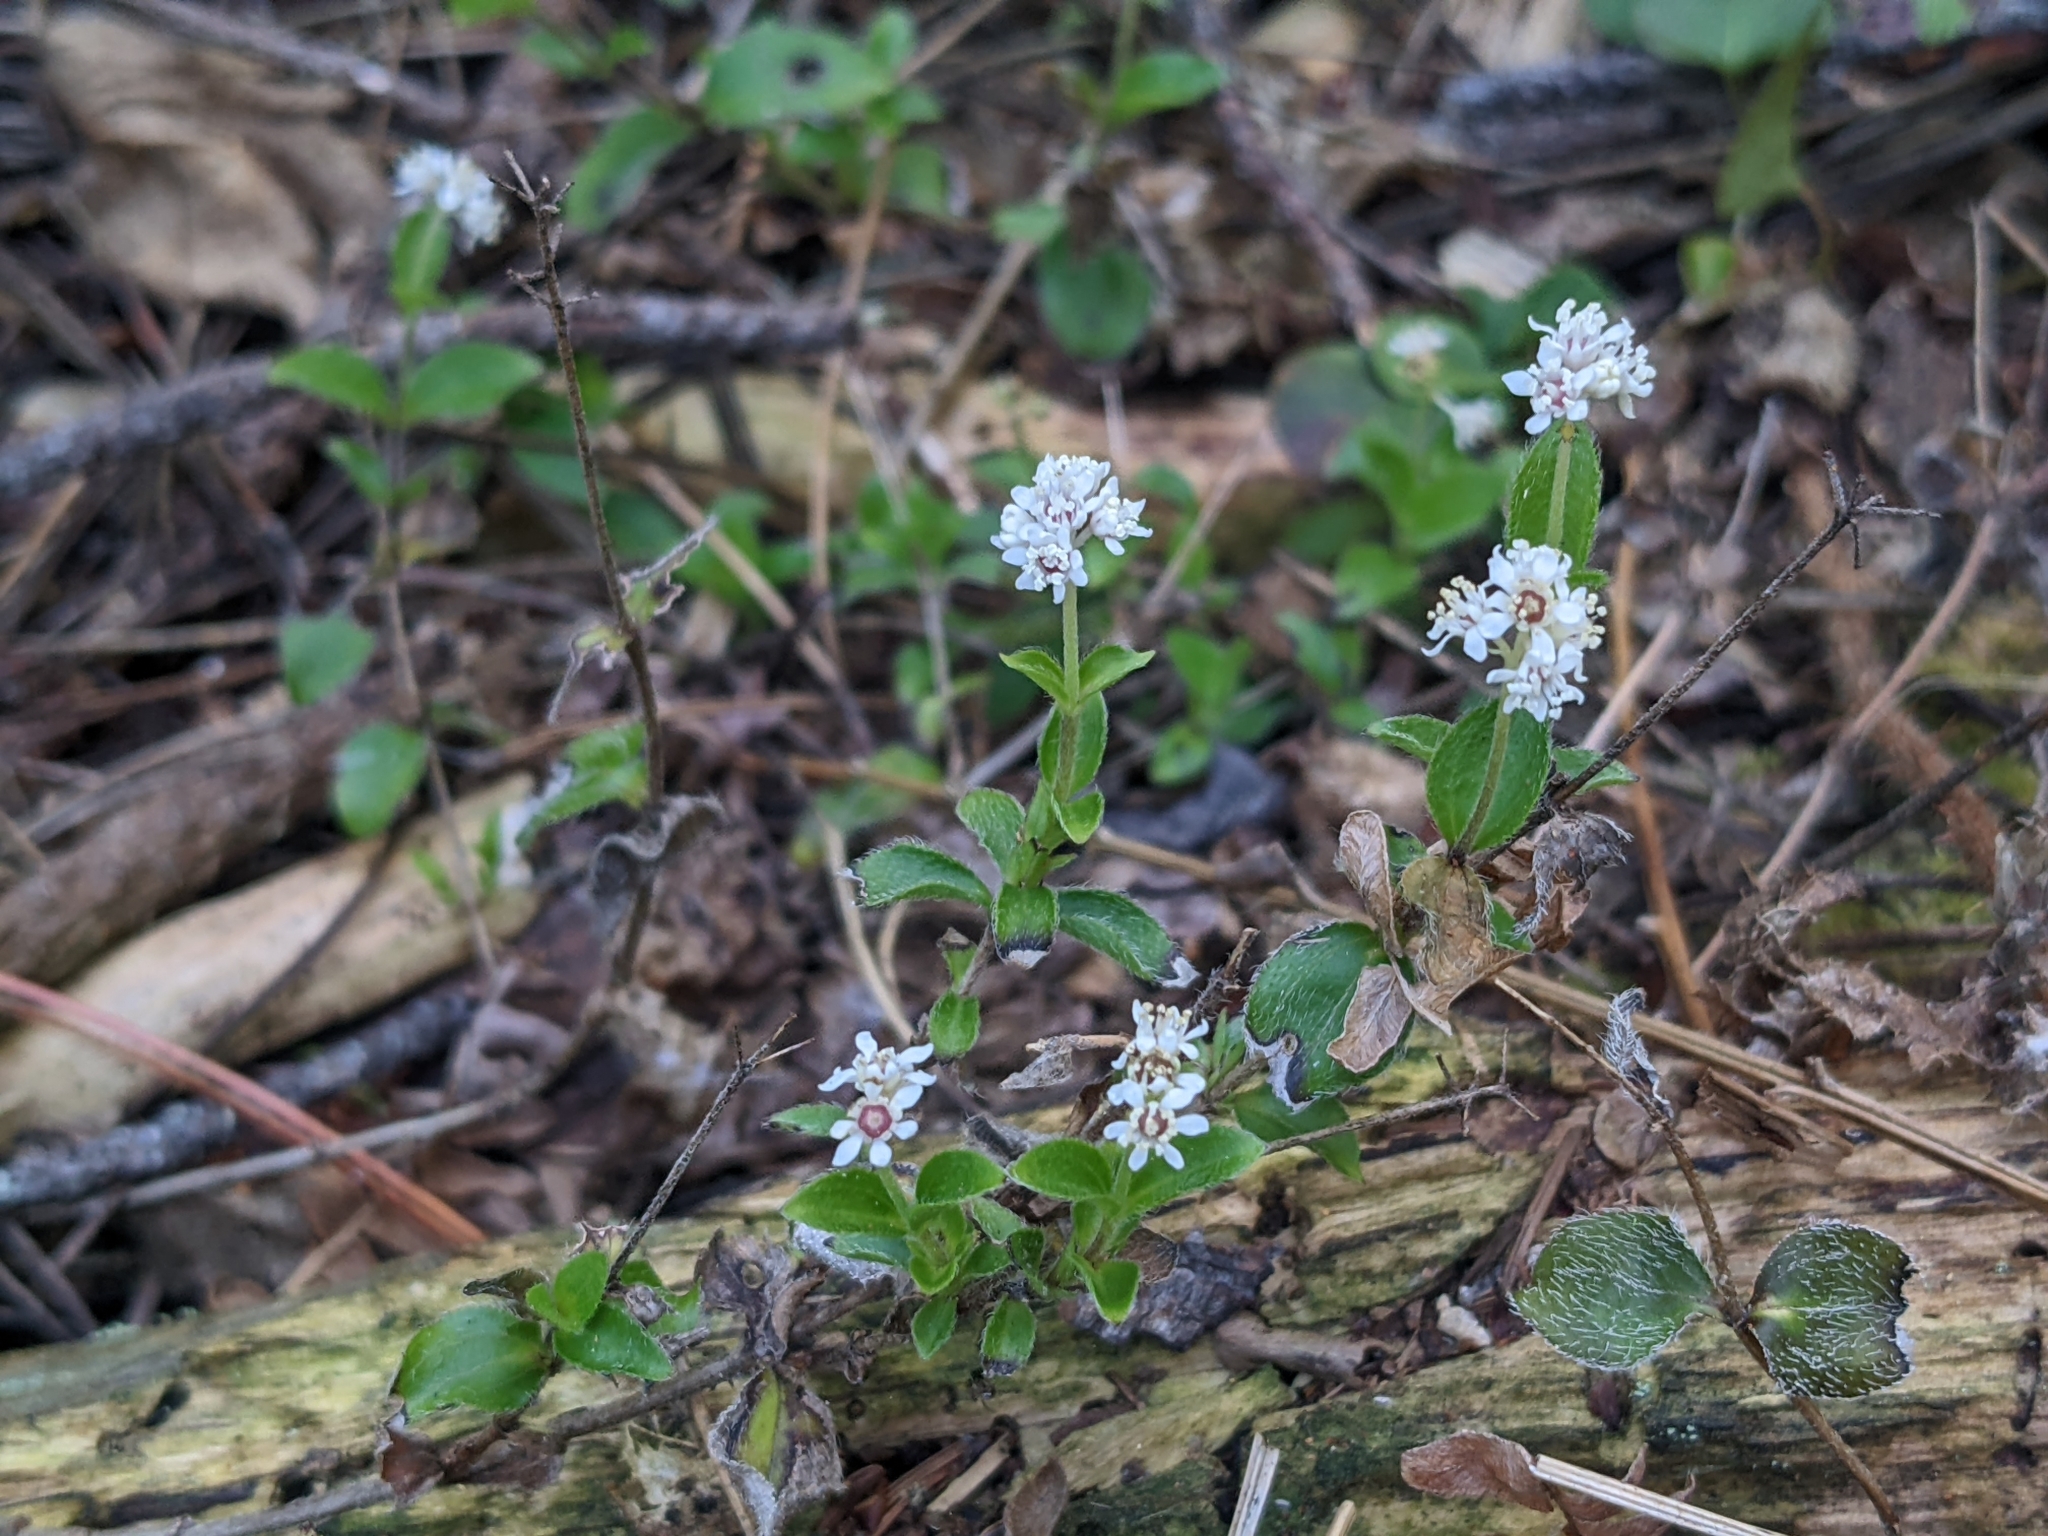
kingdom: Plantae
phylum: Tracheophyta
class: Magnoliopsida
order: Cornales
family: Hydrangeaceae
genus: Whipplea
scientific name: Whipplea modesta
